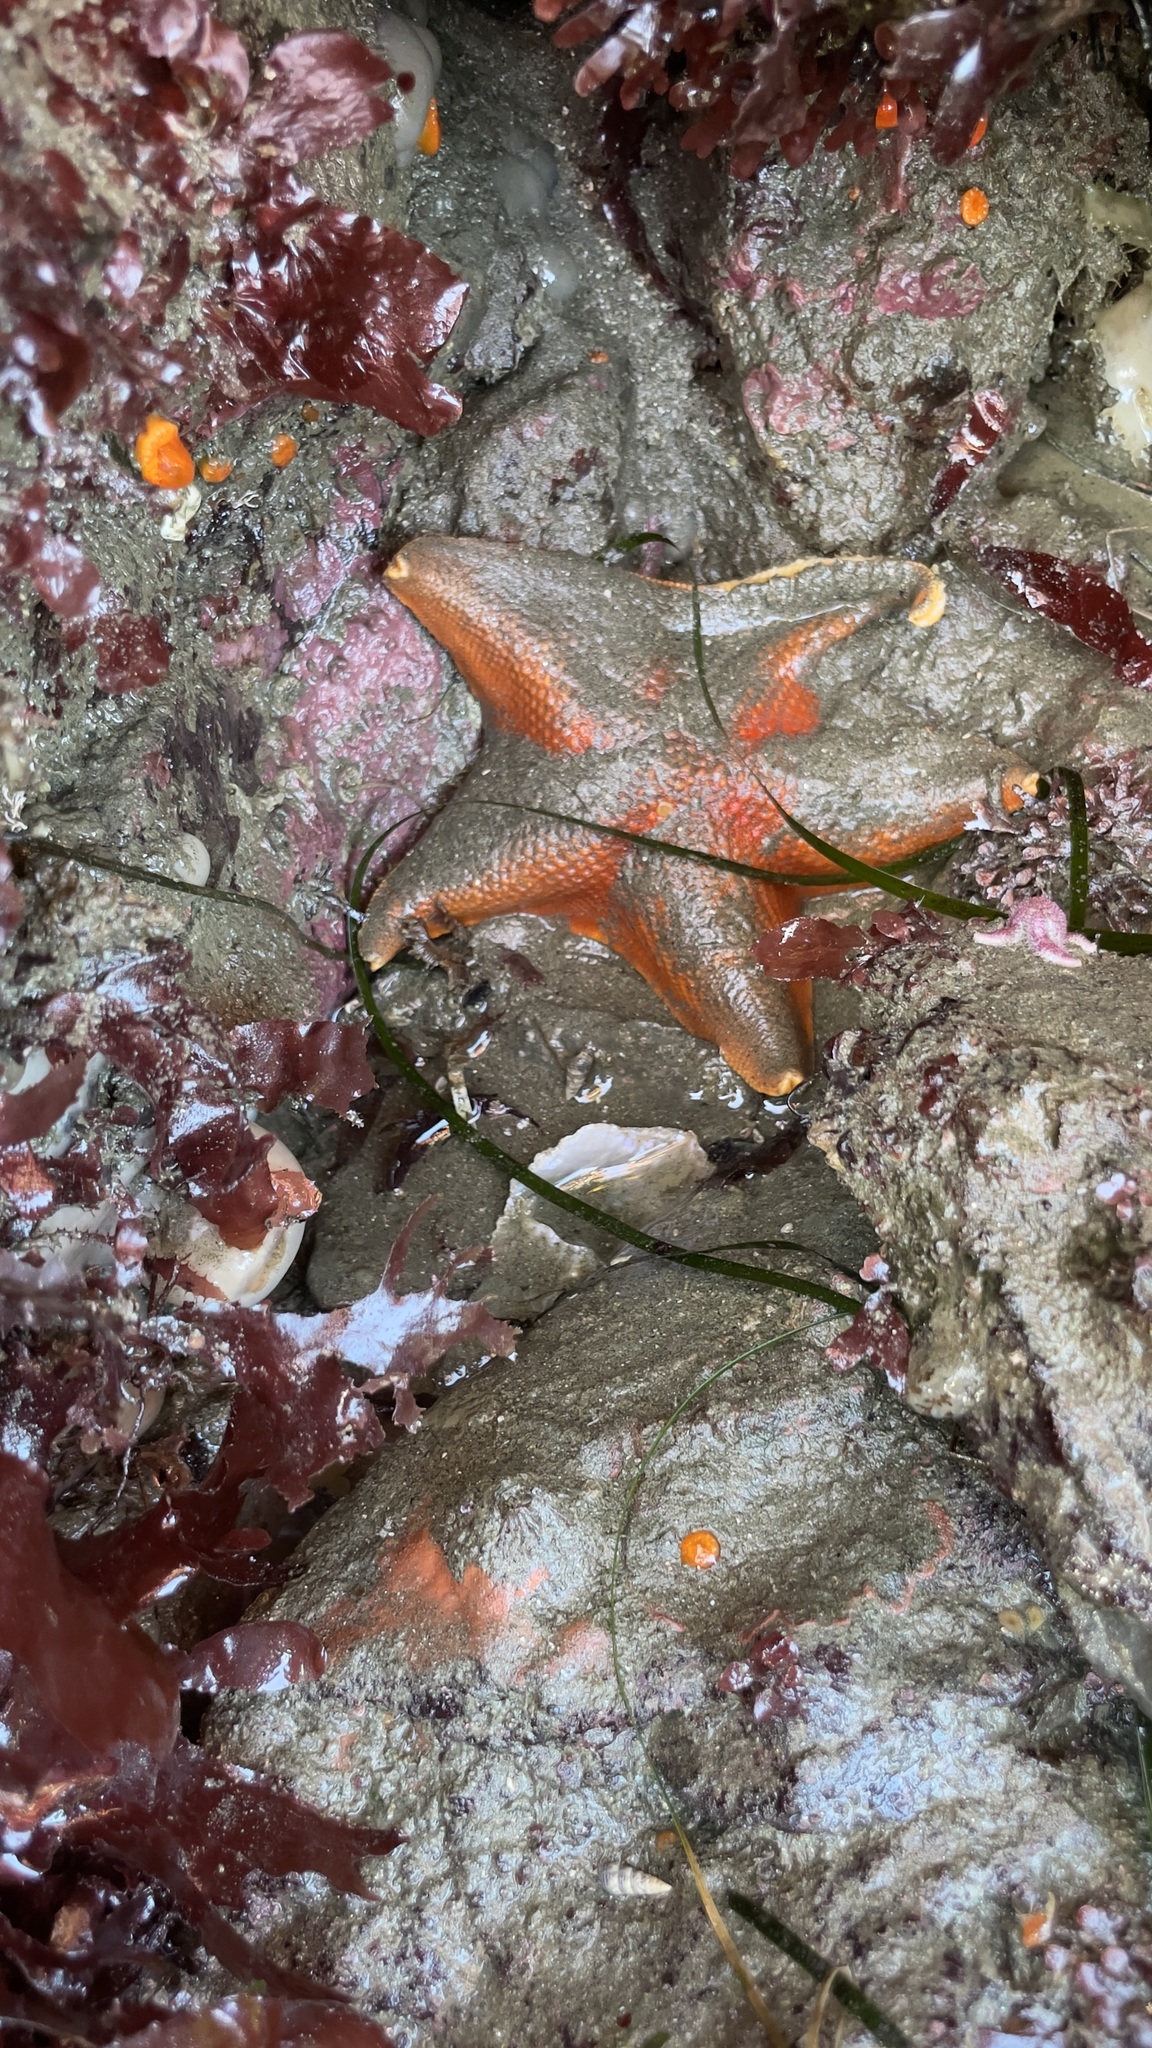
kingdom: Animalia
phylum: Echinodermata
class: Asteroidea
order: Valvatida
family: Asterinidae
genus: Patiria
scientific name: Patiria miniata
